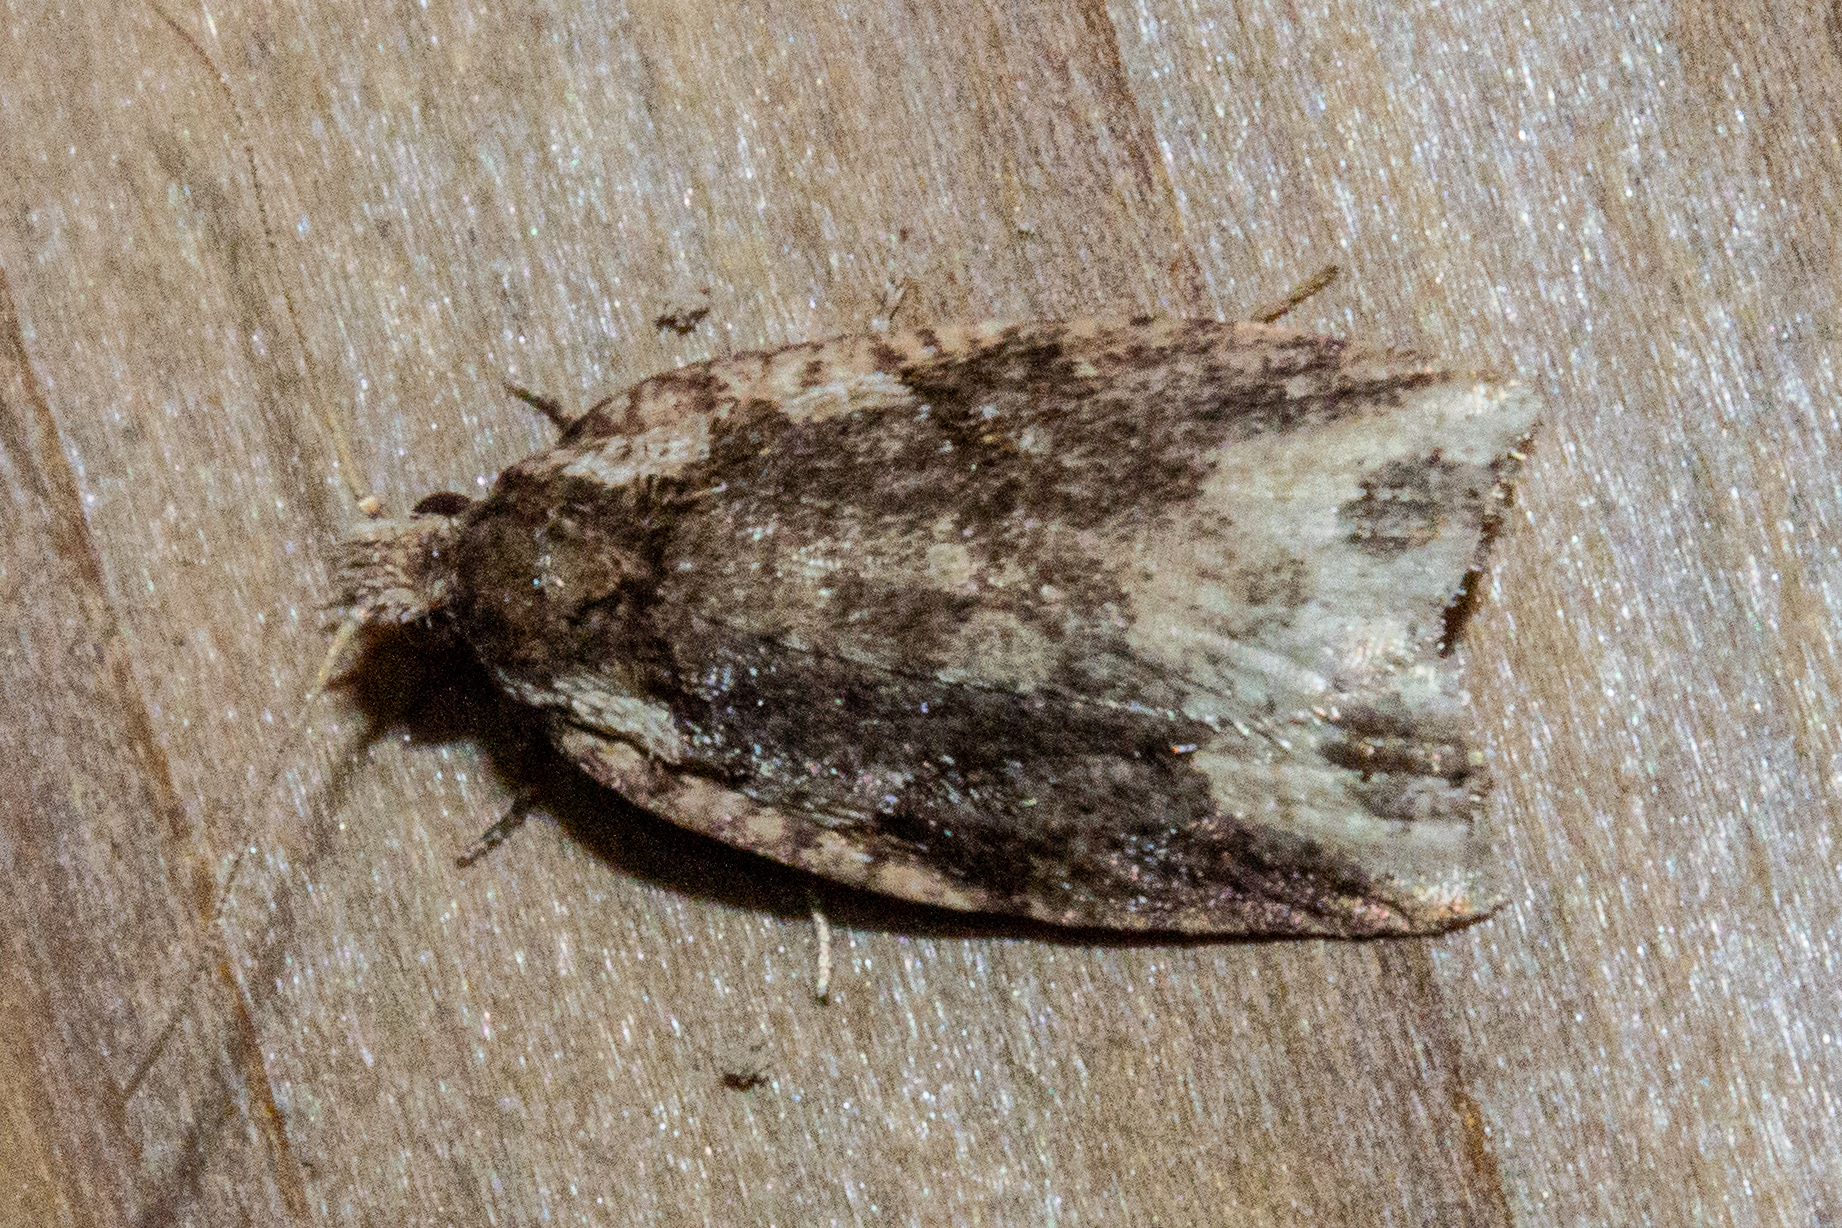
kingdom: Animalia
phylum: Arthropoda
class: Insecta
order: Lepidoptera
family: Tortricidae
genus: Ctenopseustis
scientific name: Ctenopseustis obliquana
